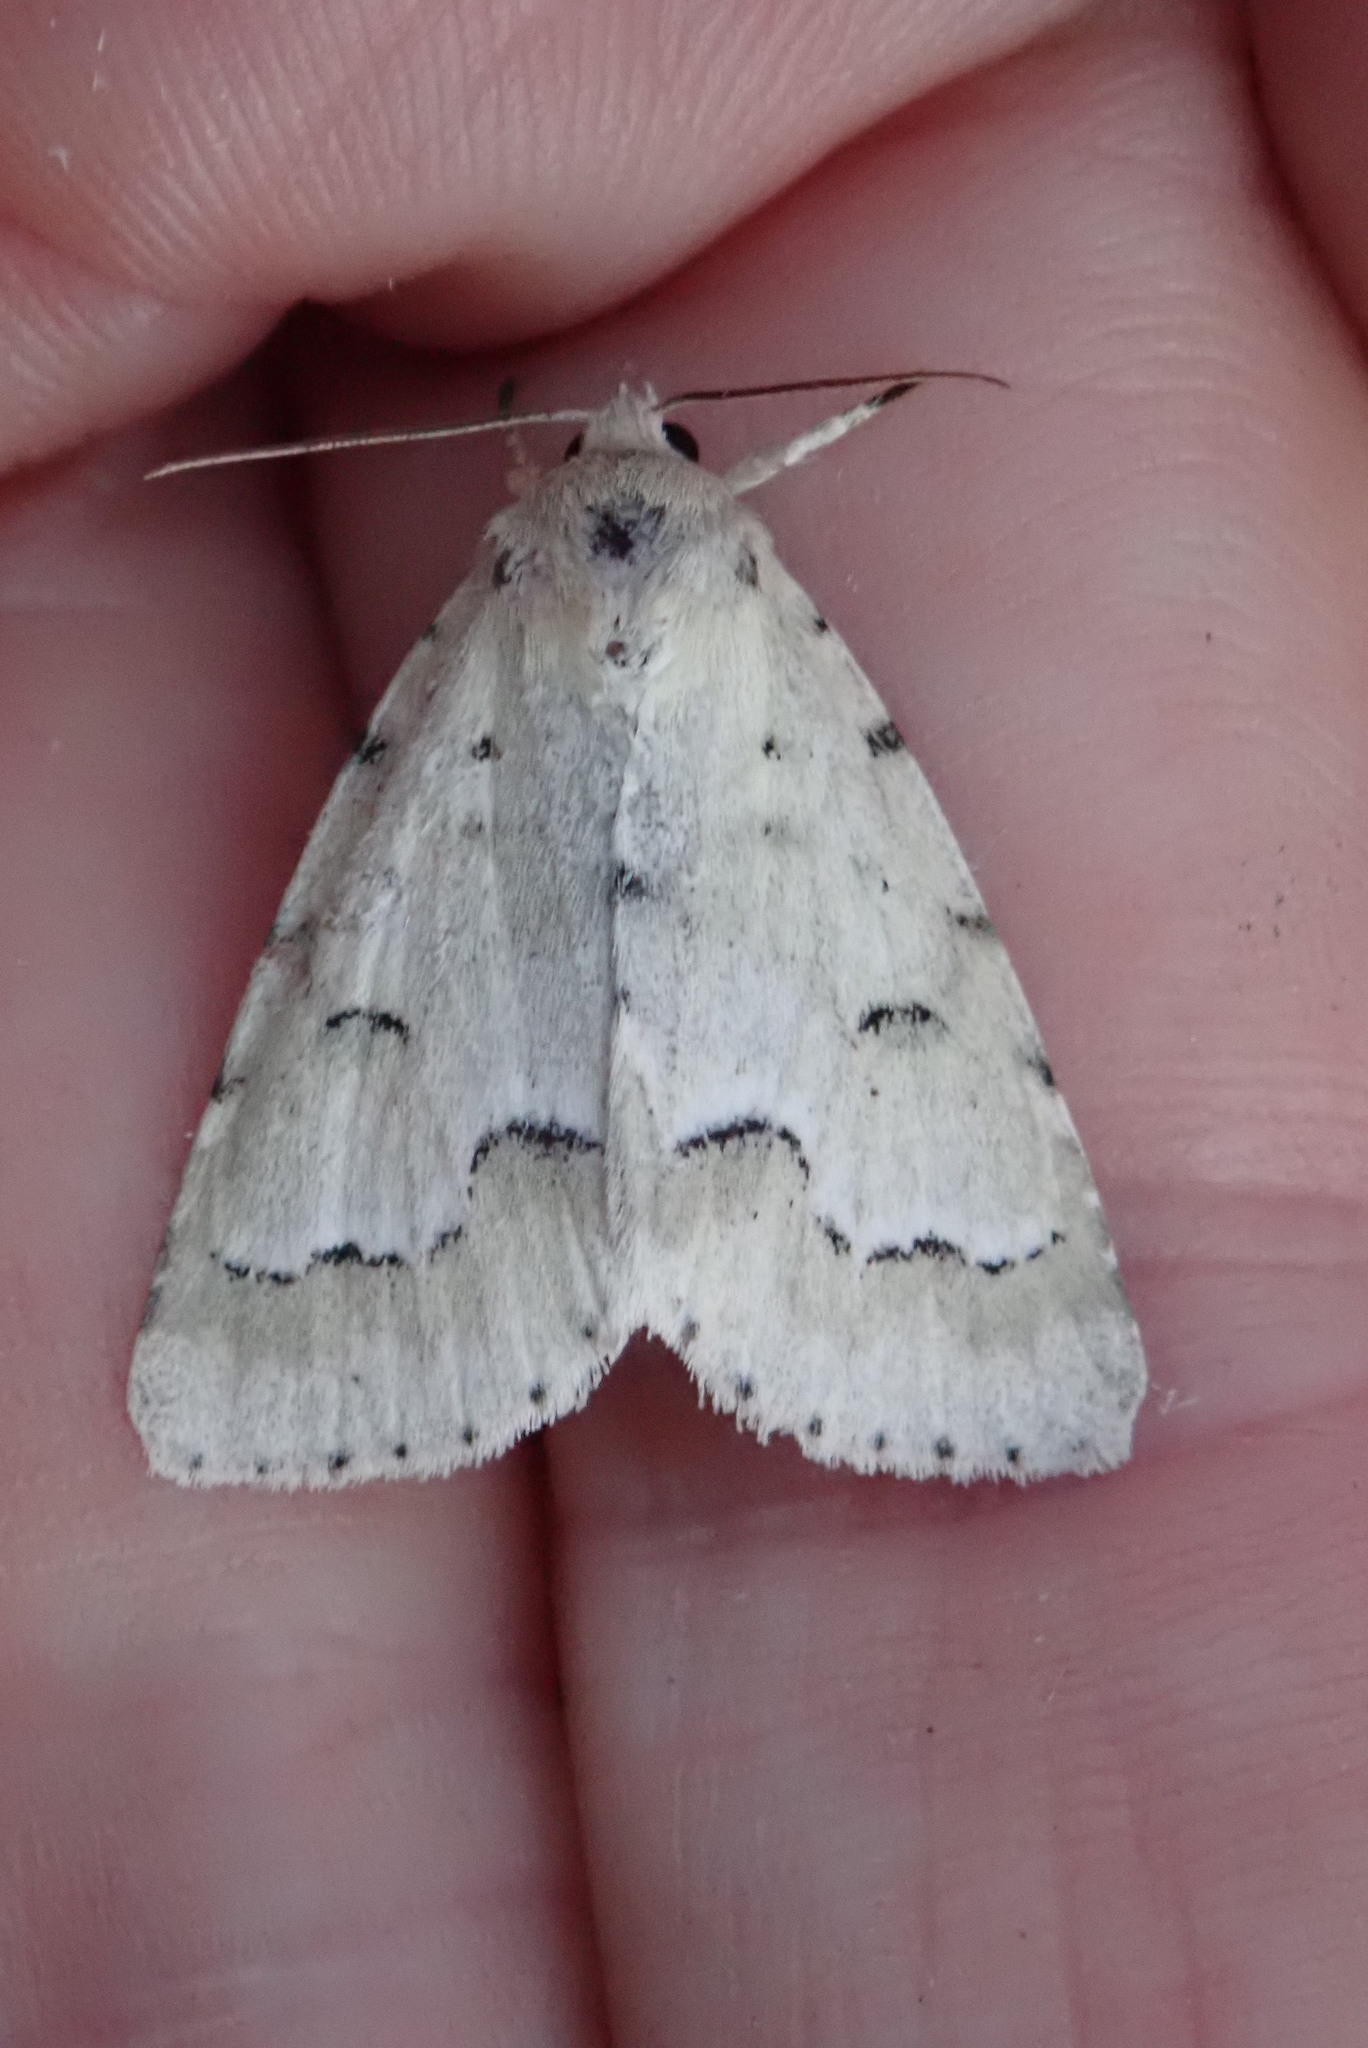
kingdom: Animalia
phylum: Arthropoda
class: Insecta
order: Lepidoptera
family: Noctuidae
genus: Acronicta
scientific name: Acronicta innotata
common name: Unmarked dagger
